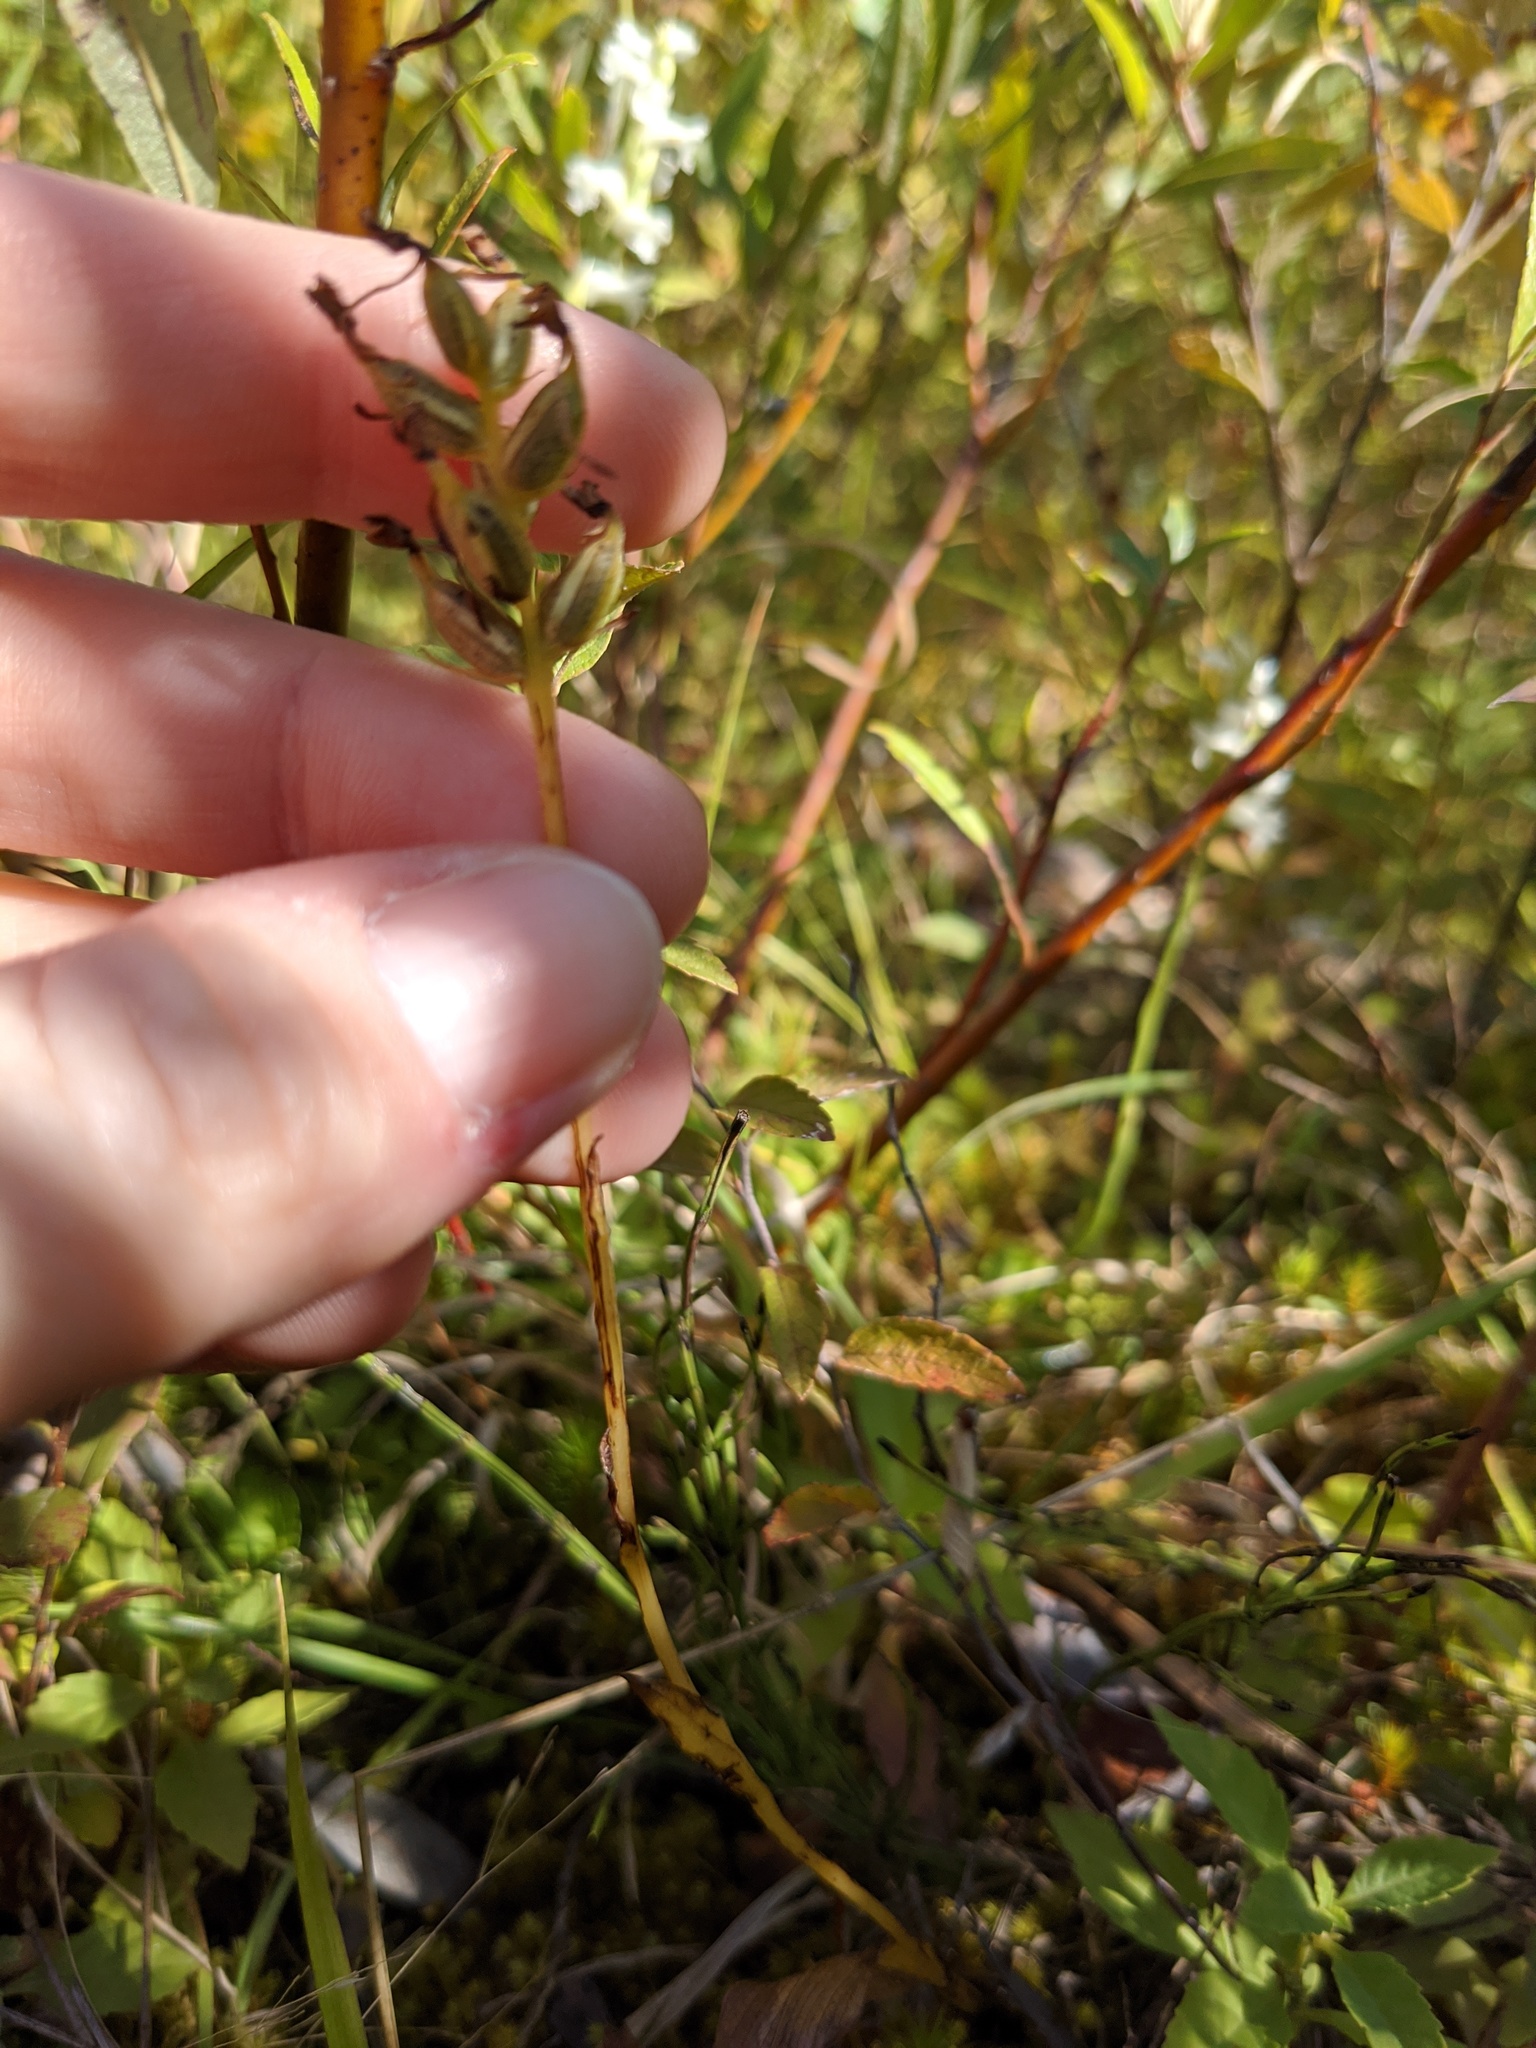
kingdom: Plantae
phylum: Tracheophyta
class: Liliopsida
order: Asparagales
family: Orchidaceae
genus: Platanthera
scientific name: Platanthera clavellata
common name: Club-spur orchid
